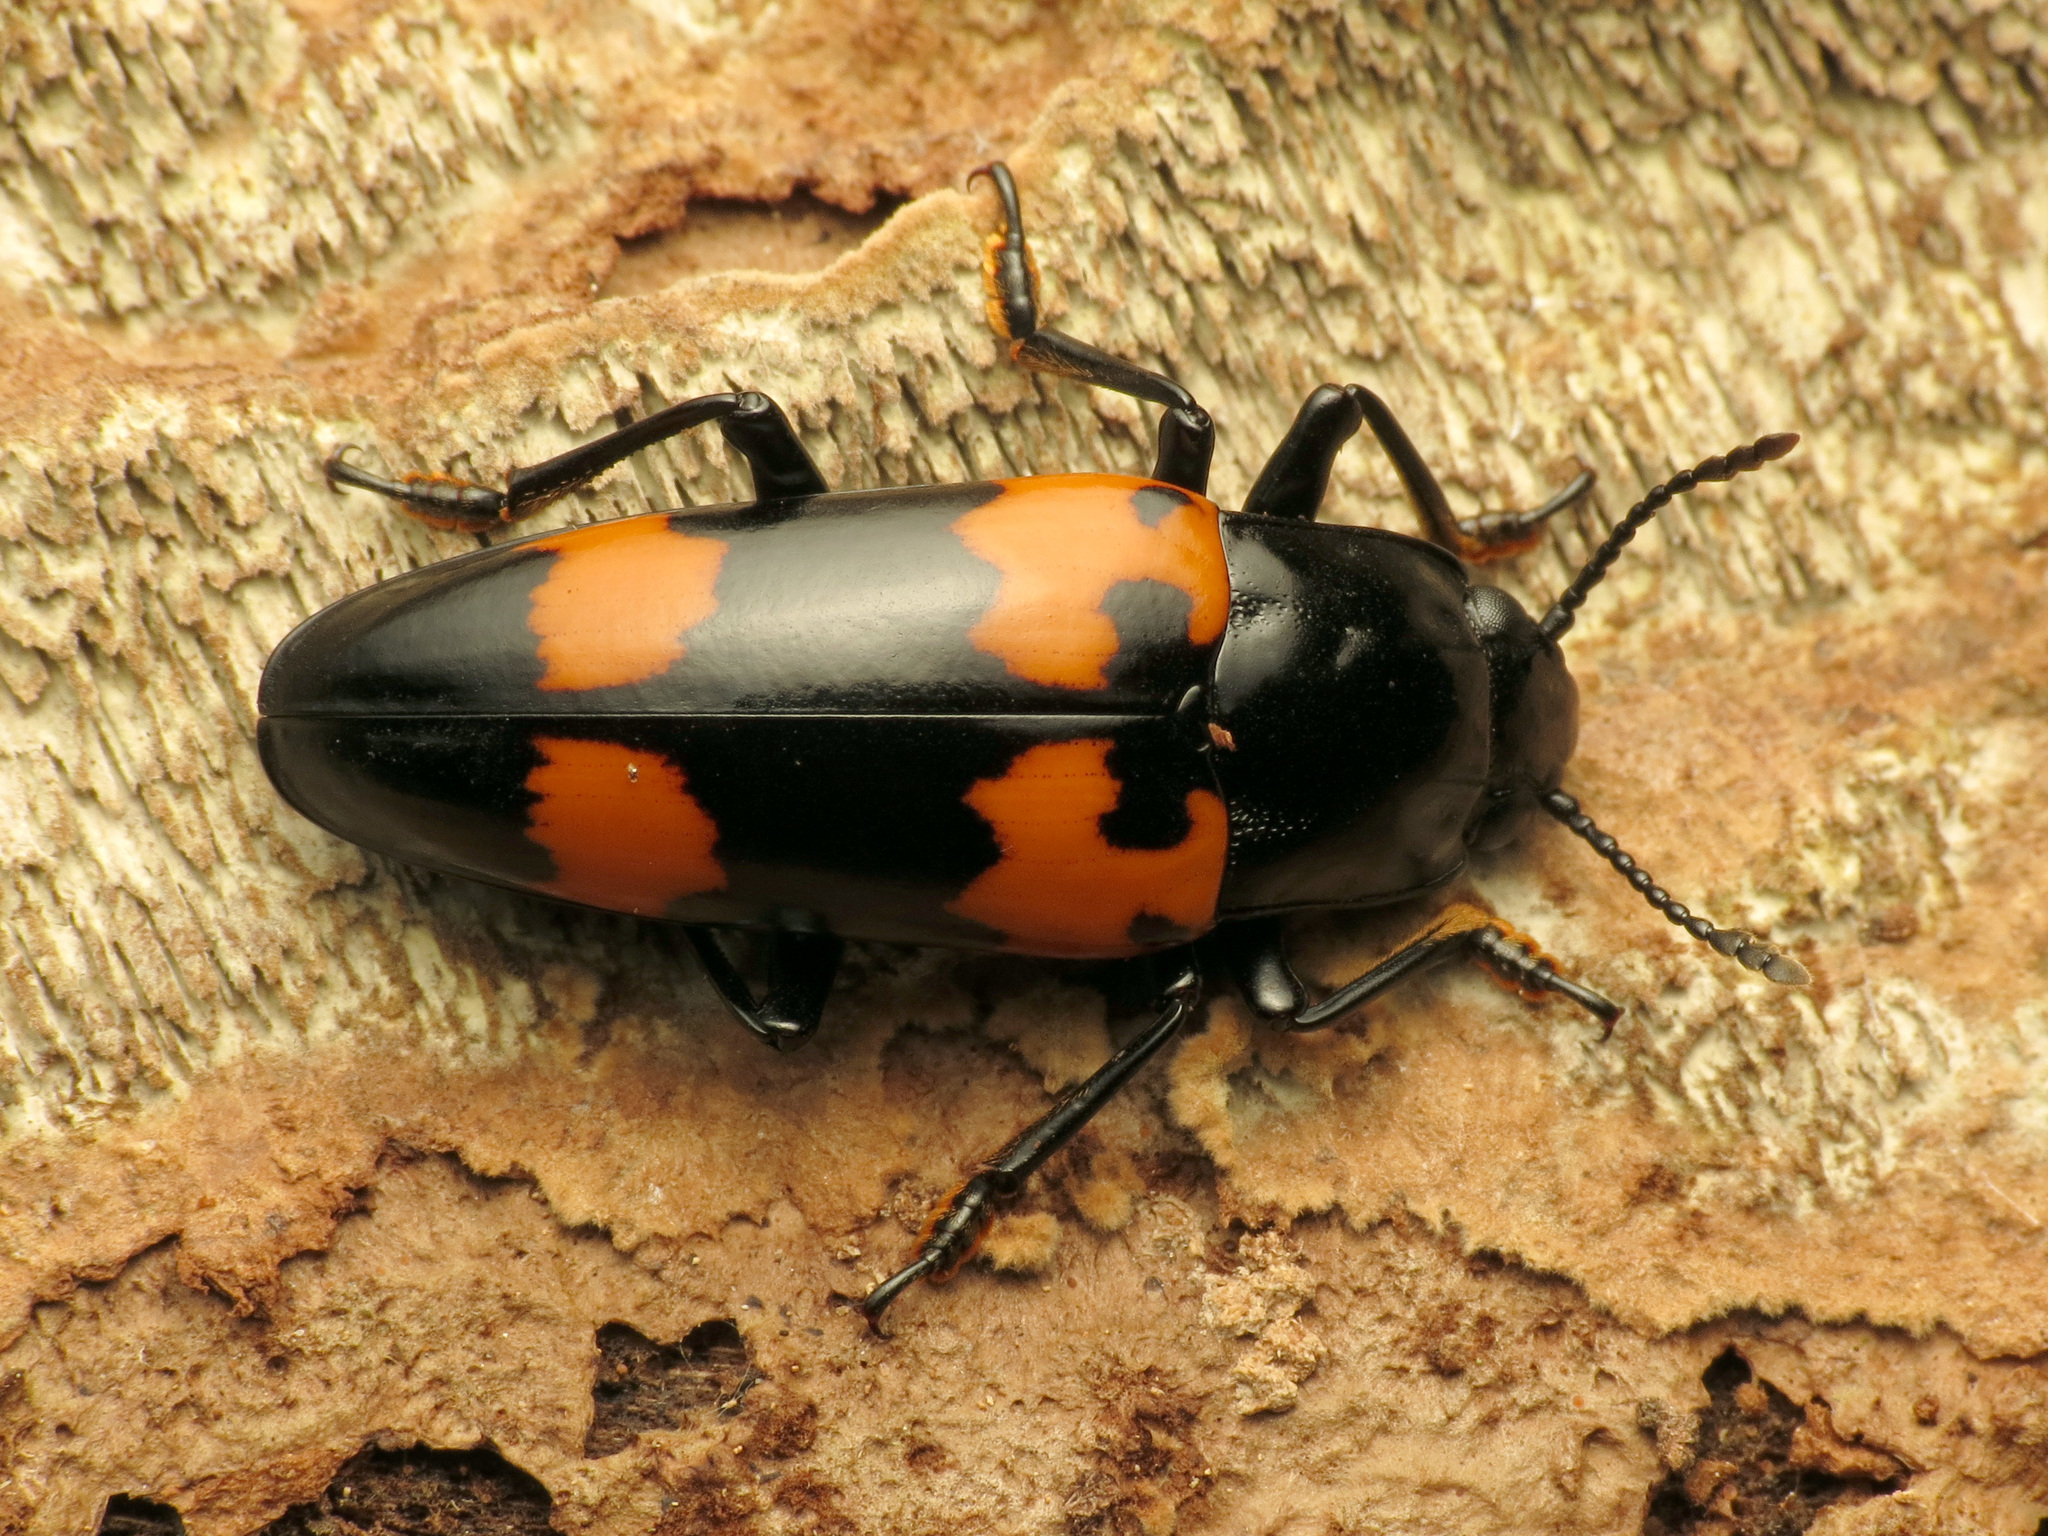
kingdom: Animalia
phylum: Arthropoda
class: Insecta
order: Coleoptera
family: Erotylidae
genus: Megalodacne
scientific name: Megalodacne heros
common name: Pleasing fungus beetle
